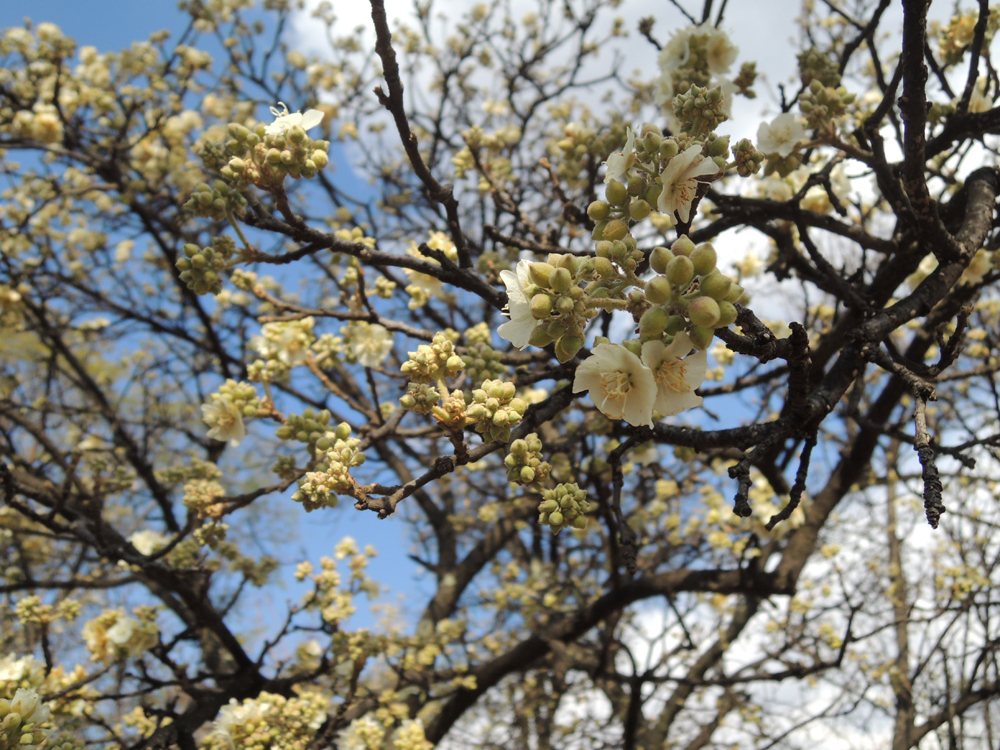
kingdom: Plantae
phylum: Tracheophyta
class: Magnoliopsida
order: Malvales
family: Malvaceae
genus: Dombeya
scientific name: Dombeya rotundifolia
